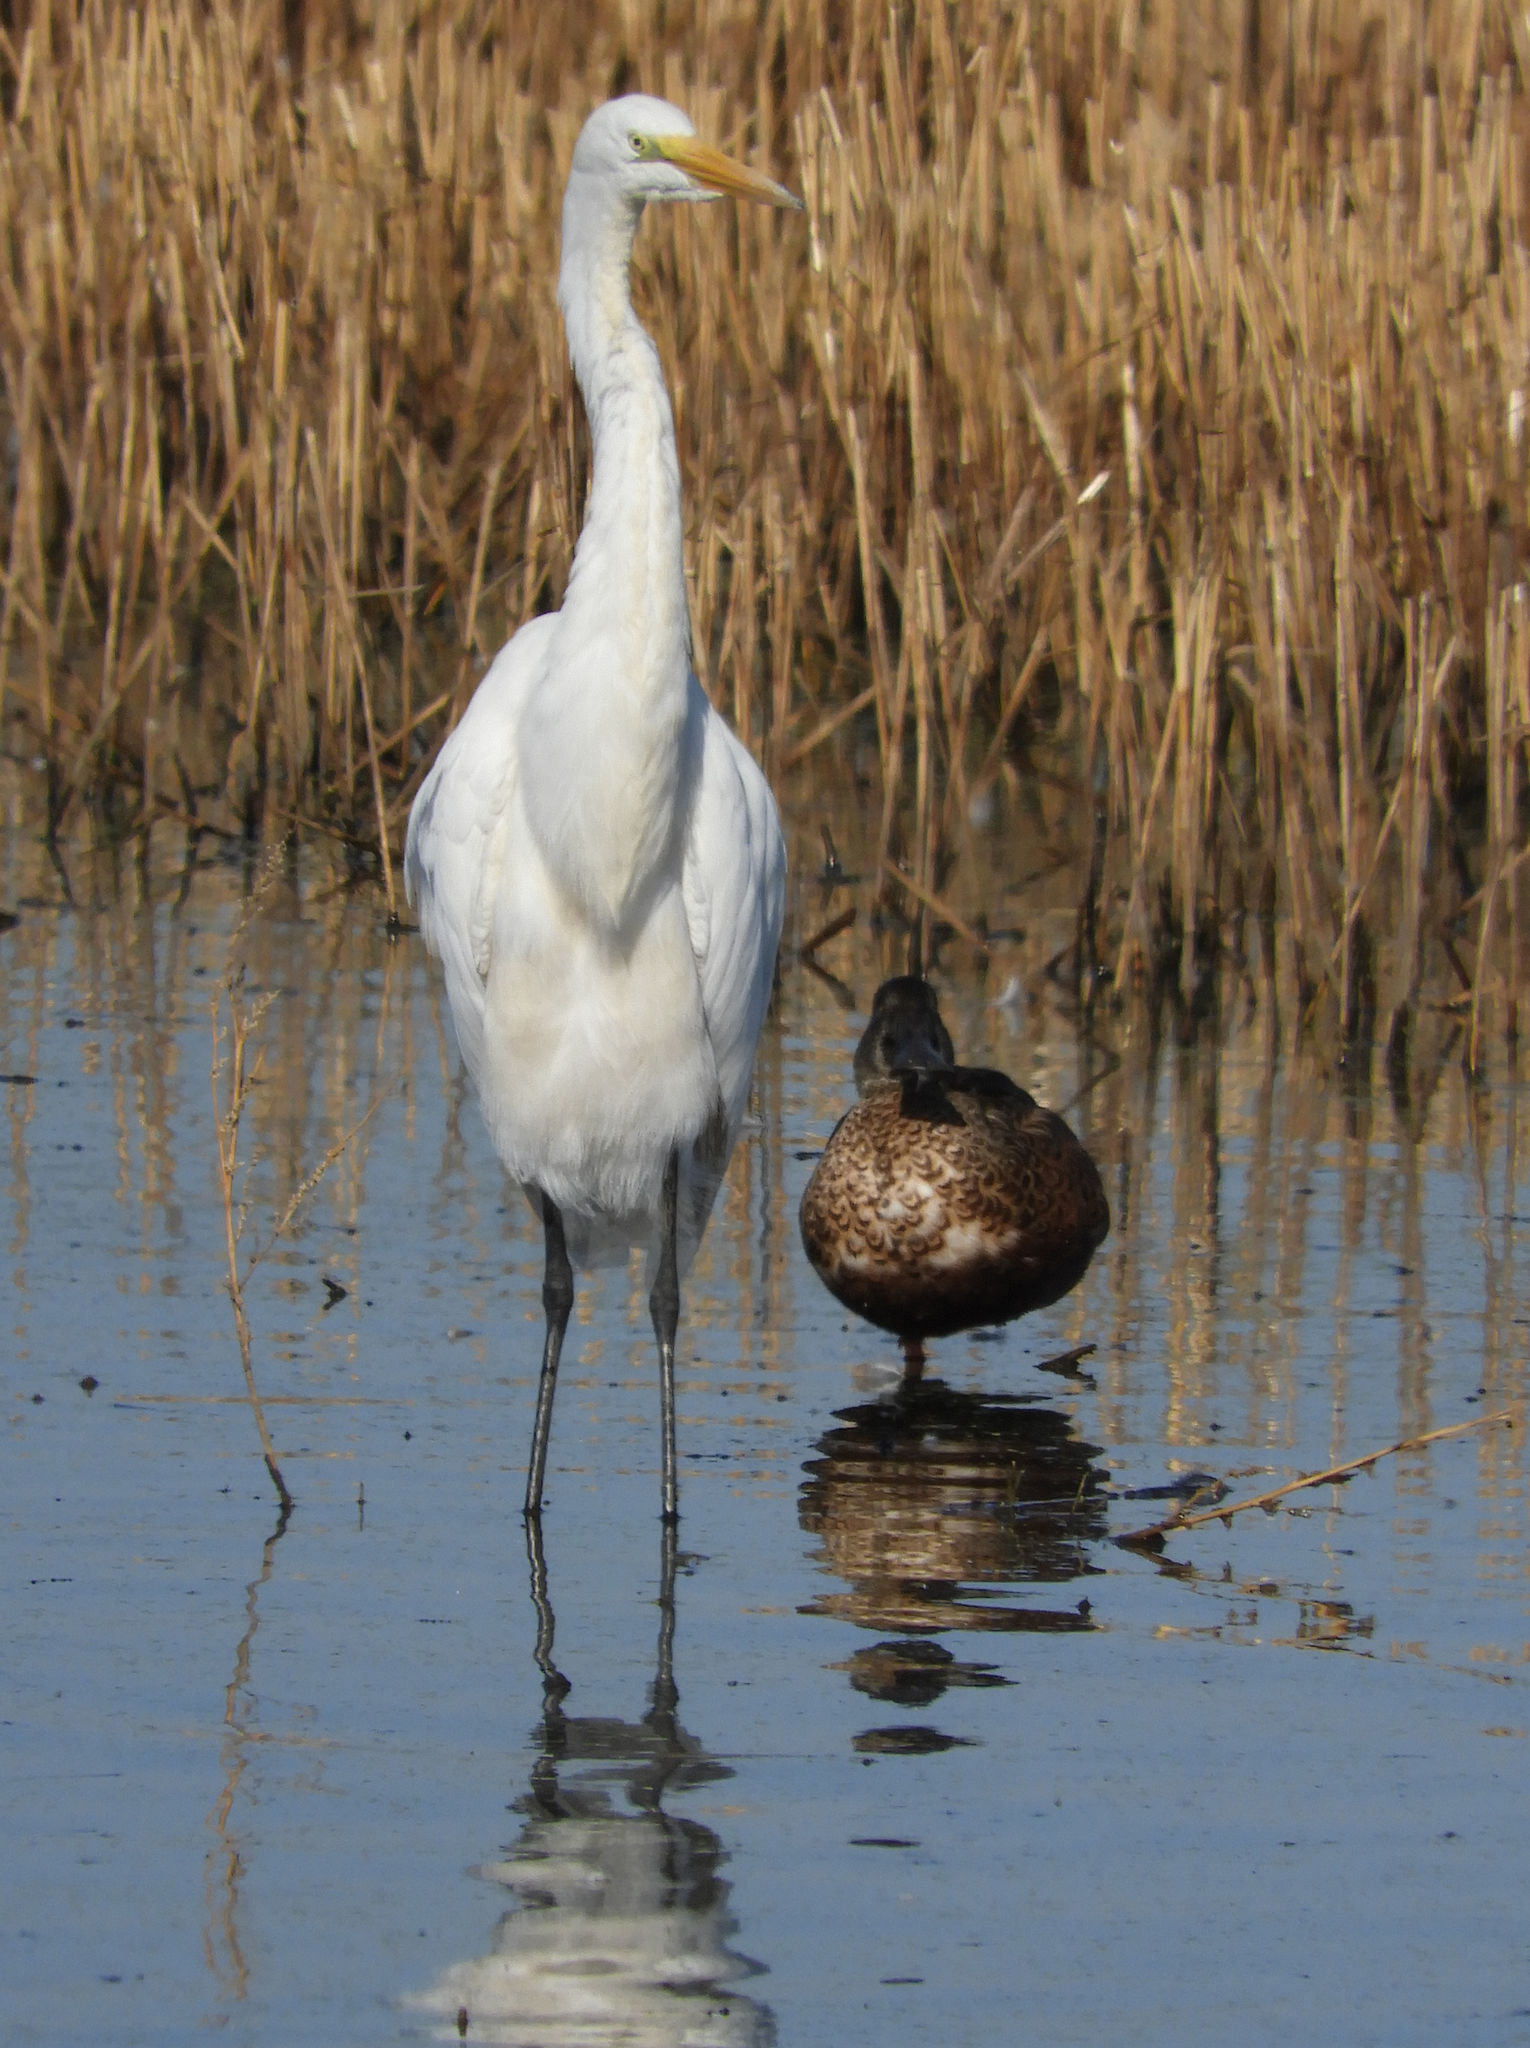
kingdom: Animalia
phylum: Chordata
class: Aves
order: Pelecaniformes
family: Ardeidae
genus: Ardea
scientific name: Ardea alba
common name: Great egret
